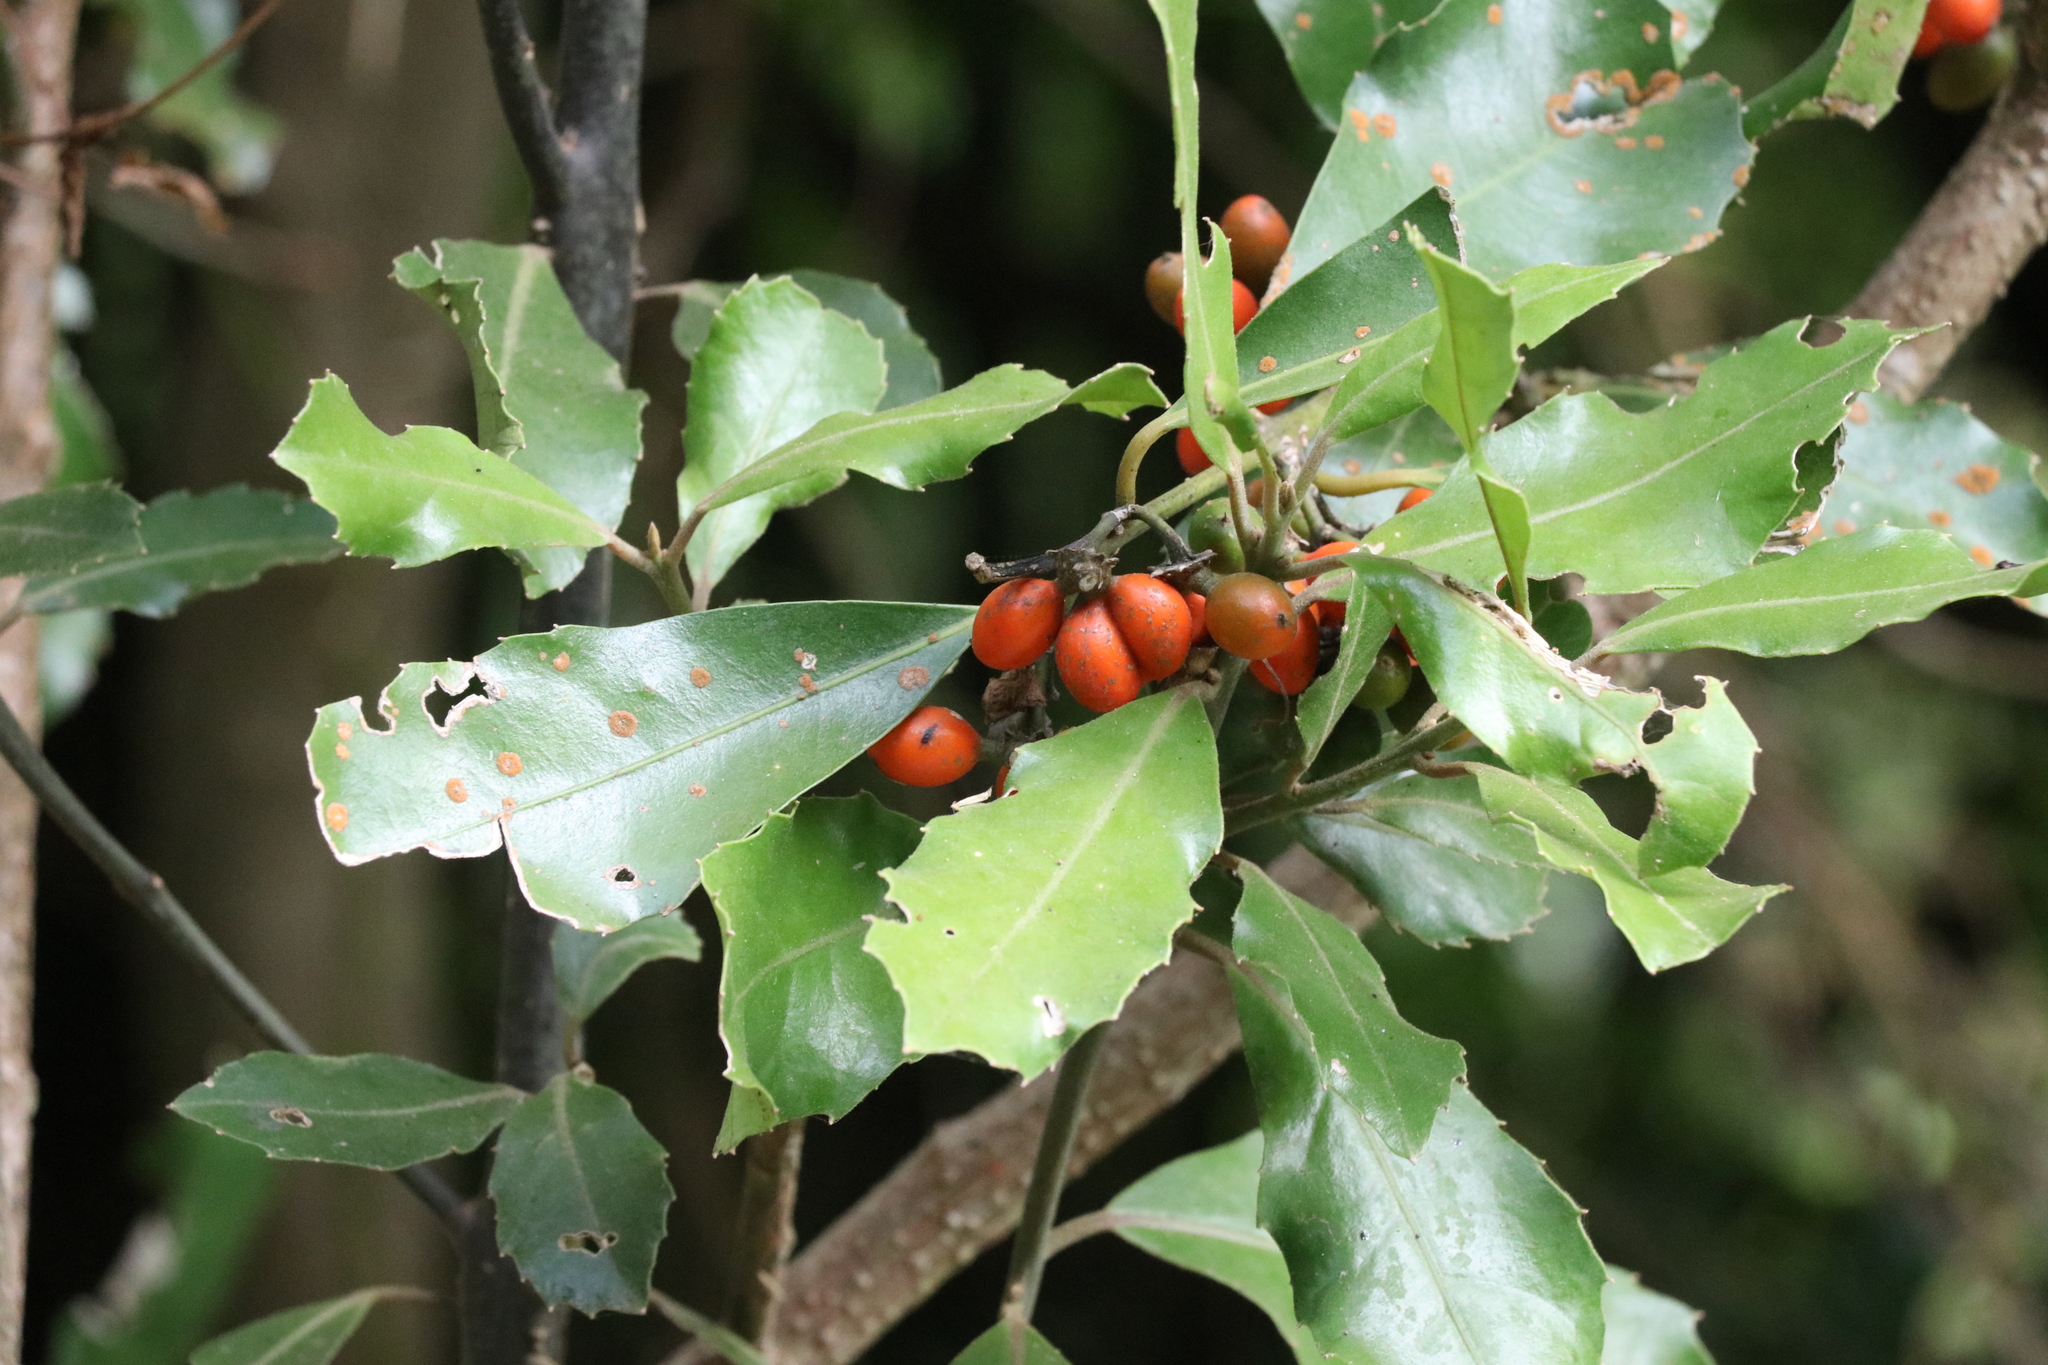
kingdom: Plantae
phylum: Tracheophyta
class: Magnoliopsida
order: Laurales
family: Monimiaceae
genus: Hedycarya
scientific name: Hedycarya arborea
